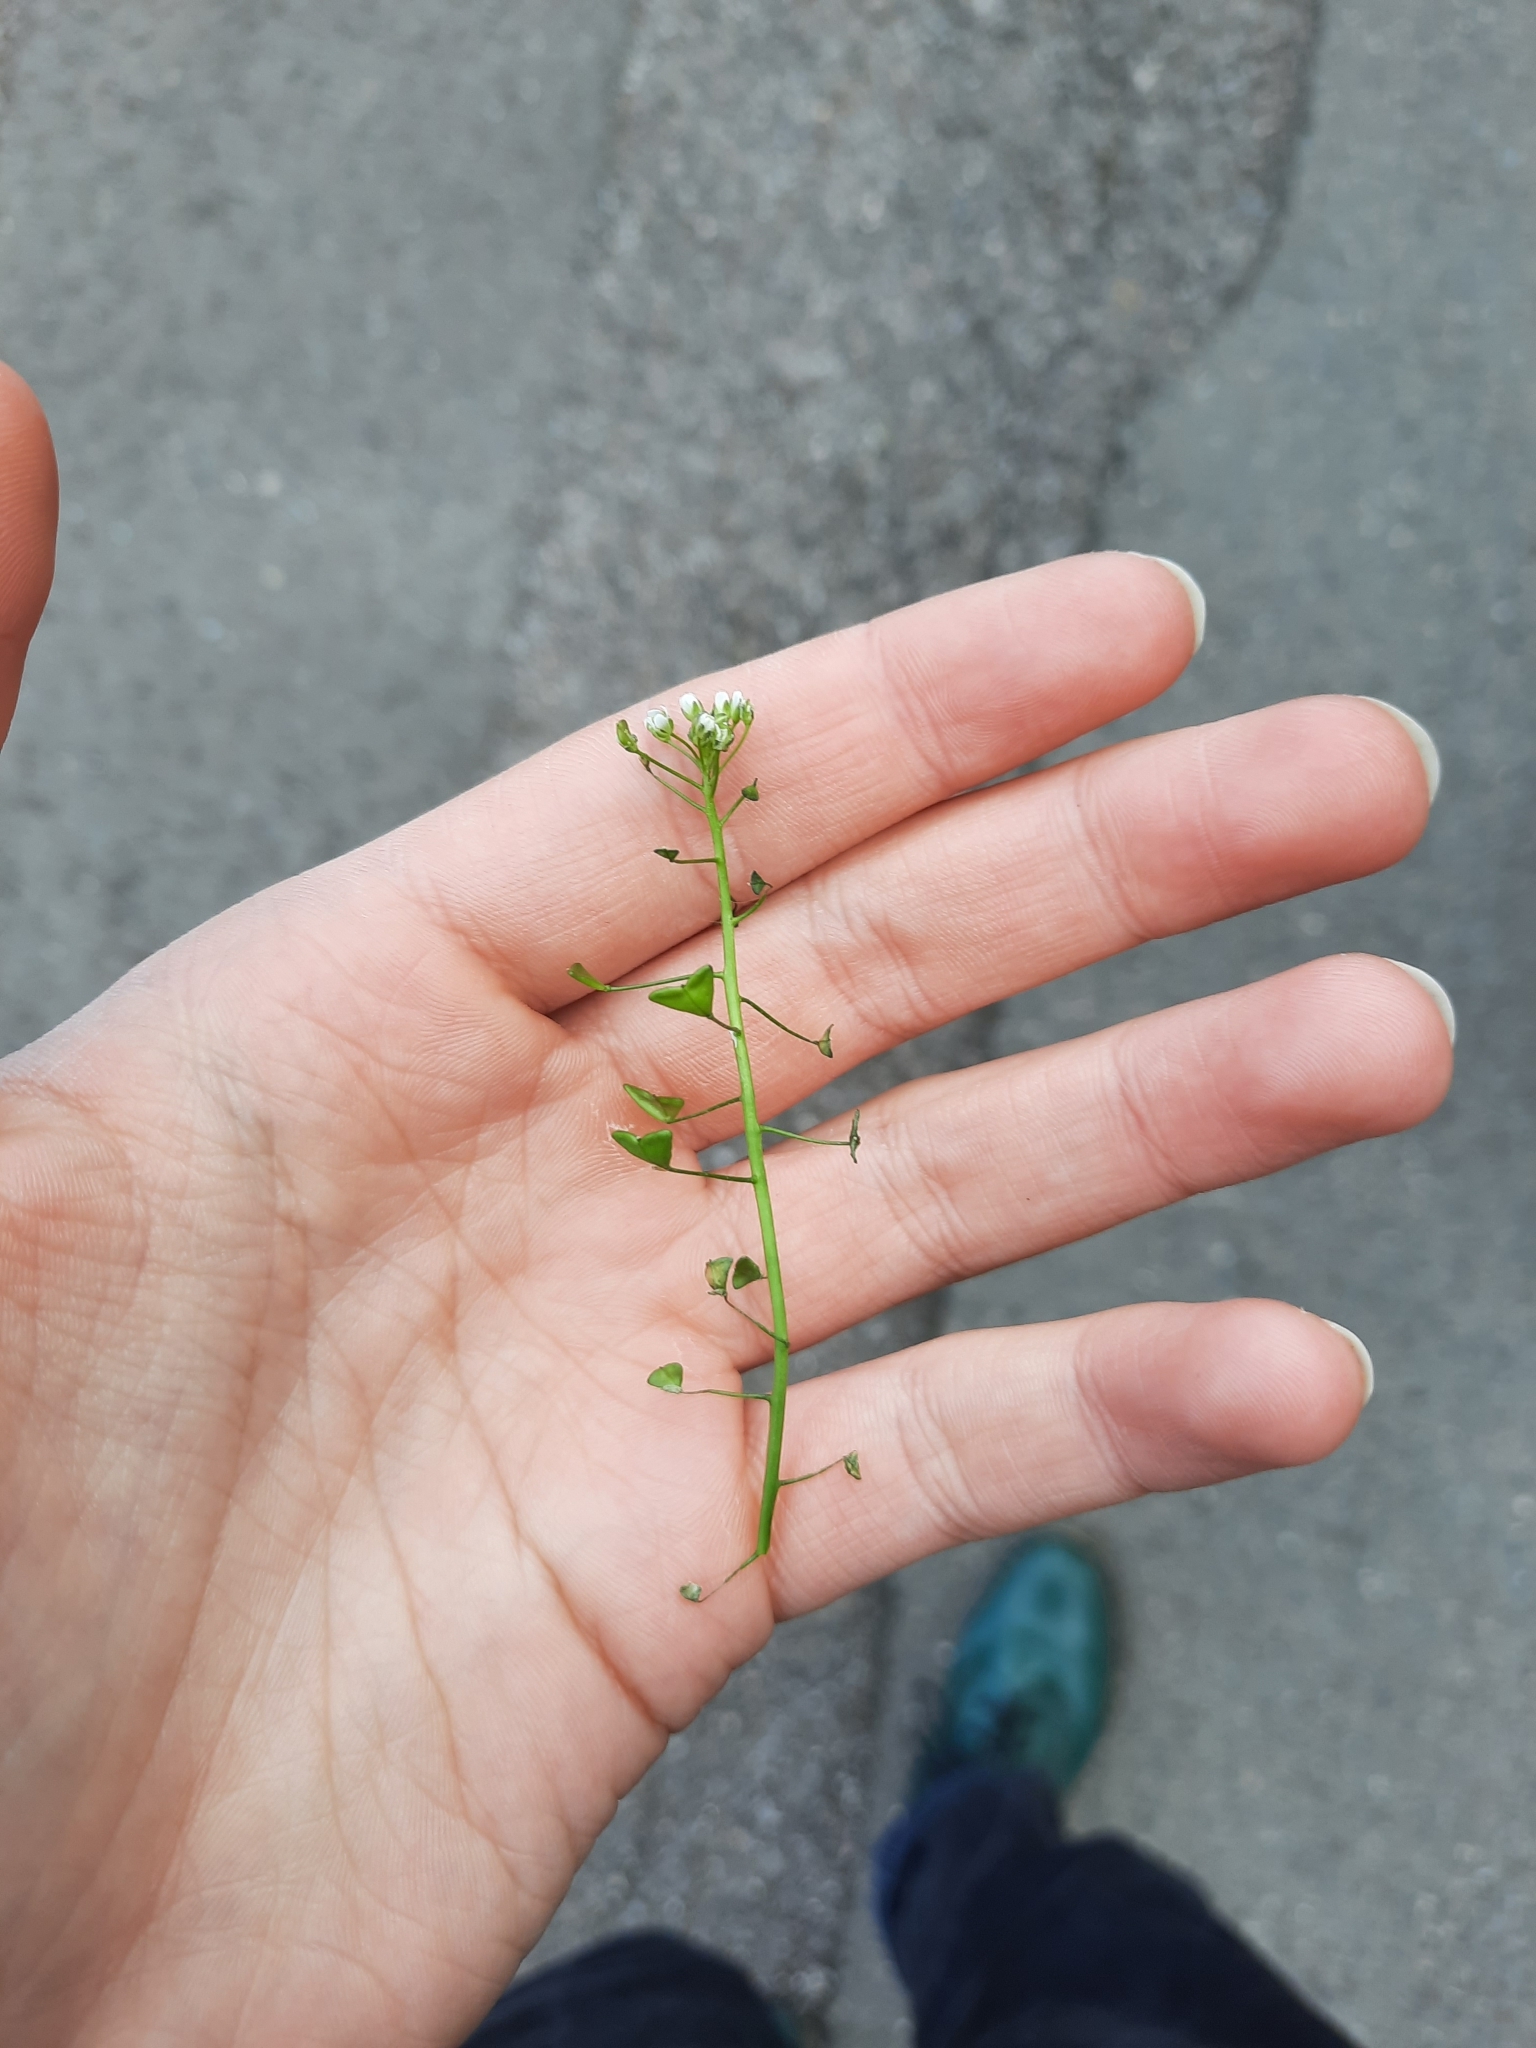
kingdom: Plantae
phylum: Tracheophyta
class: Magnoliopsida
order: Brassicales
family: Brassicaceae
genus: Capsella
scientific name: Capsella bursa-pastoris
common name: Shepherd's purse
